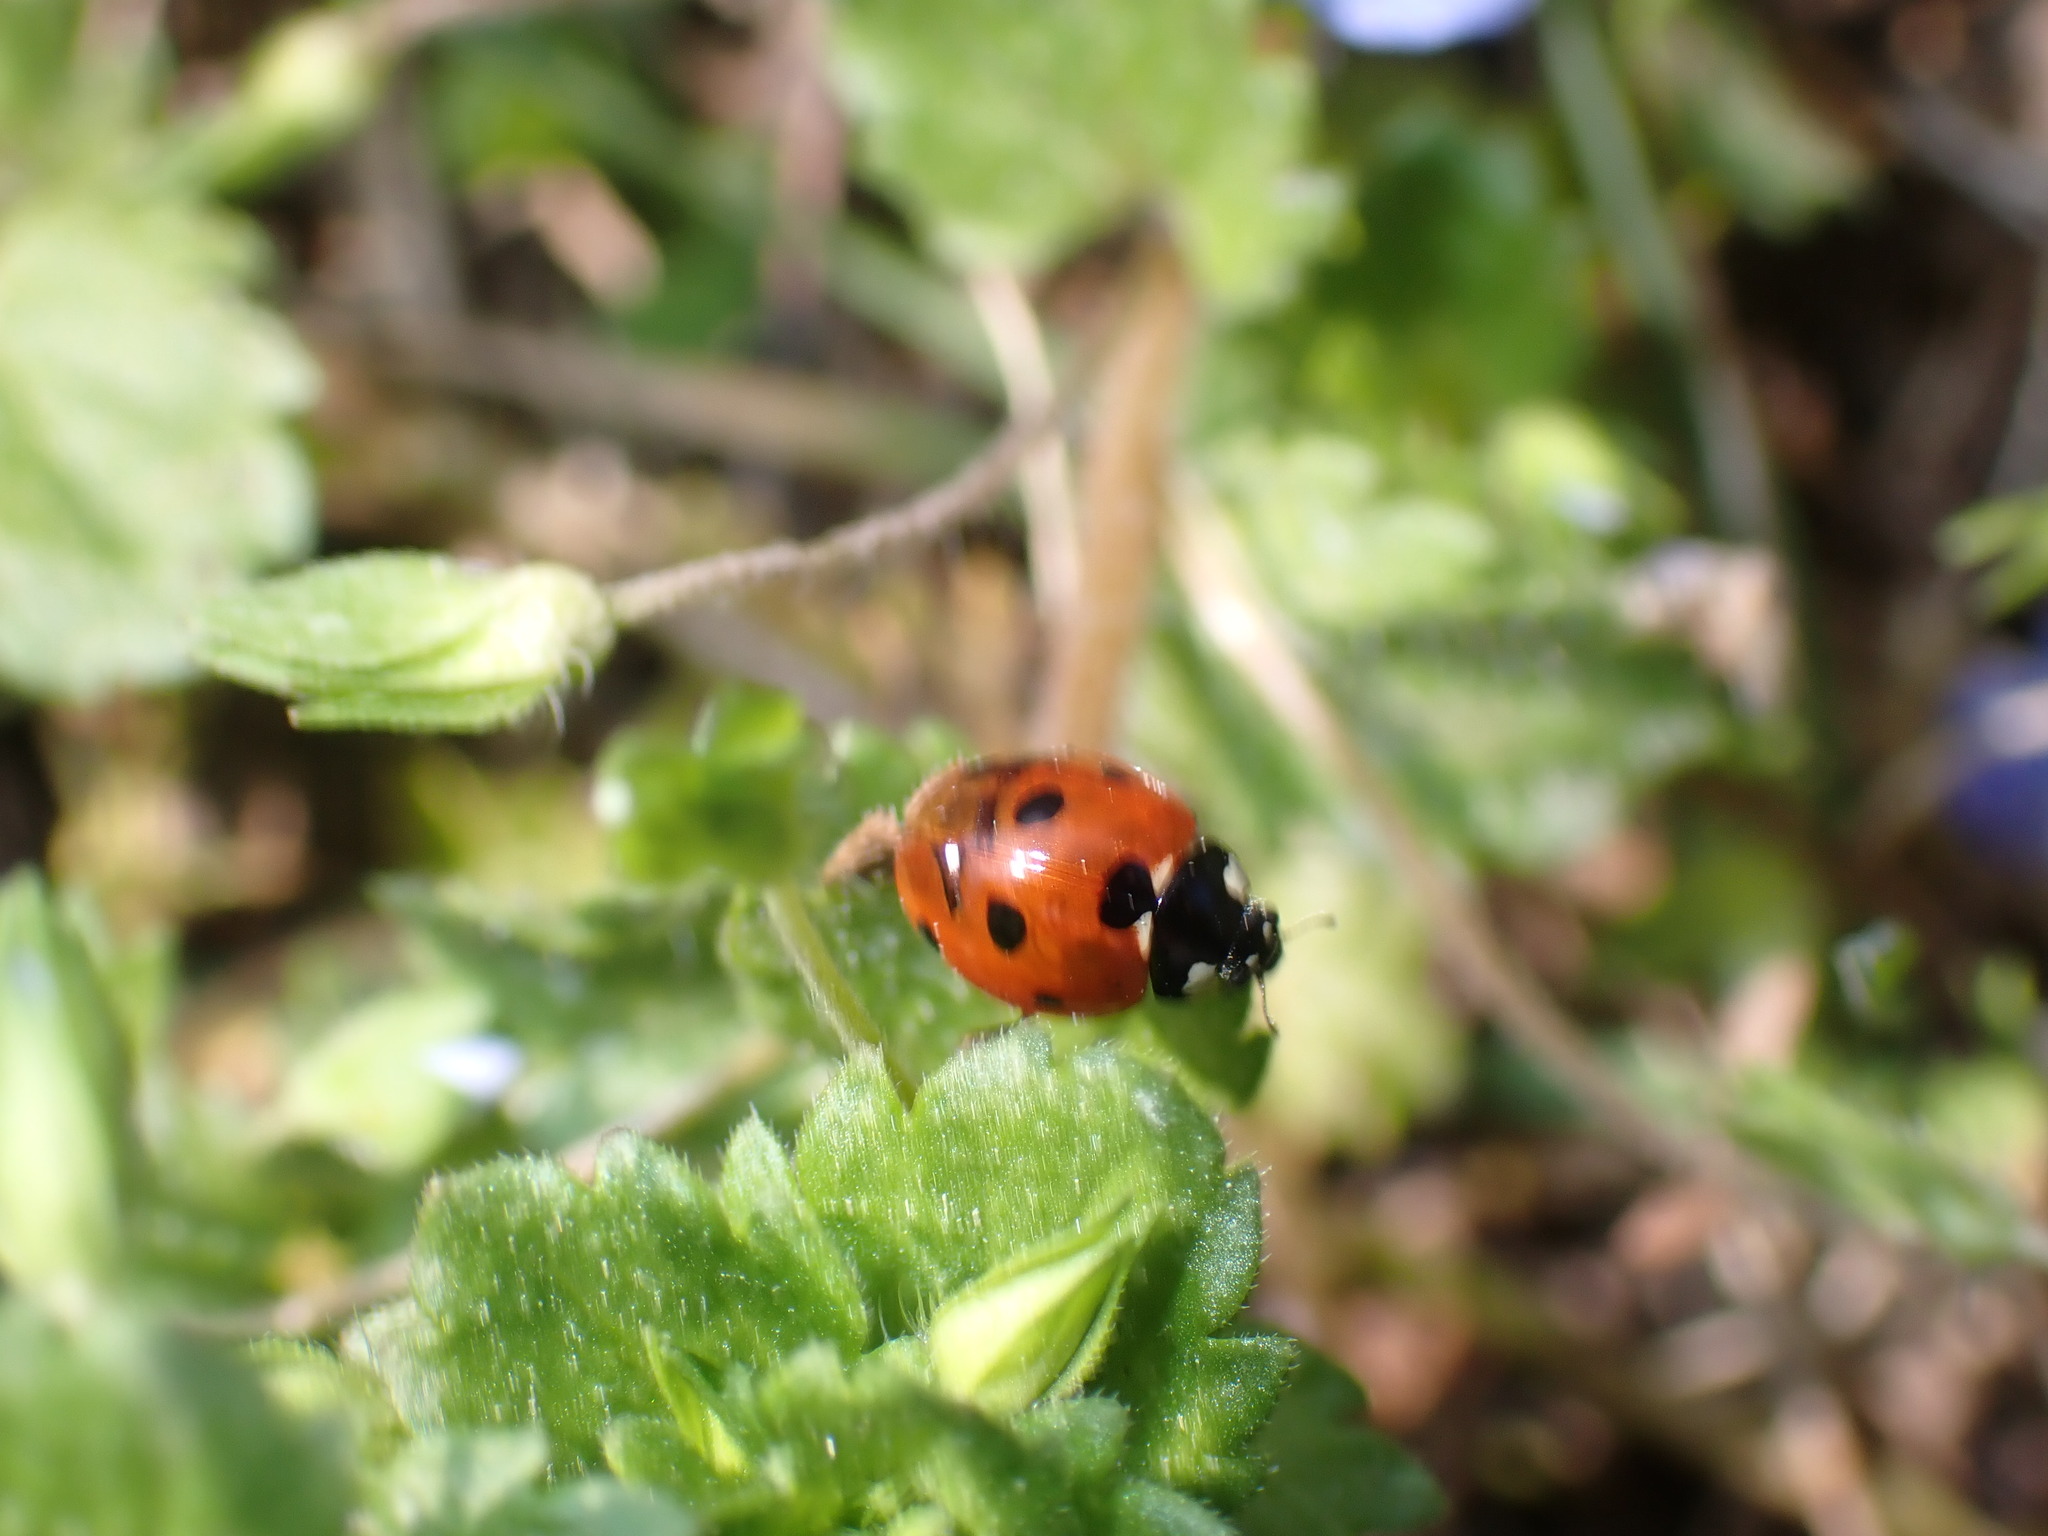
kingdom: Animalia
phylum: Arthropoda
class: Insecta
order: Coleoptera
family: Coccinellidae
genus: Coccinella
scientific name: Coccinella septempunctata
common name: Sevenspotted lady beetle
